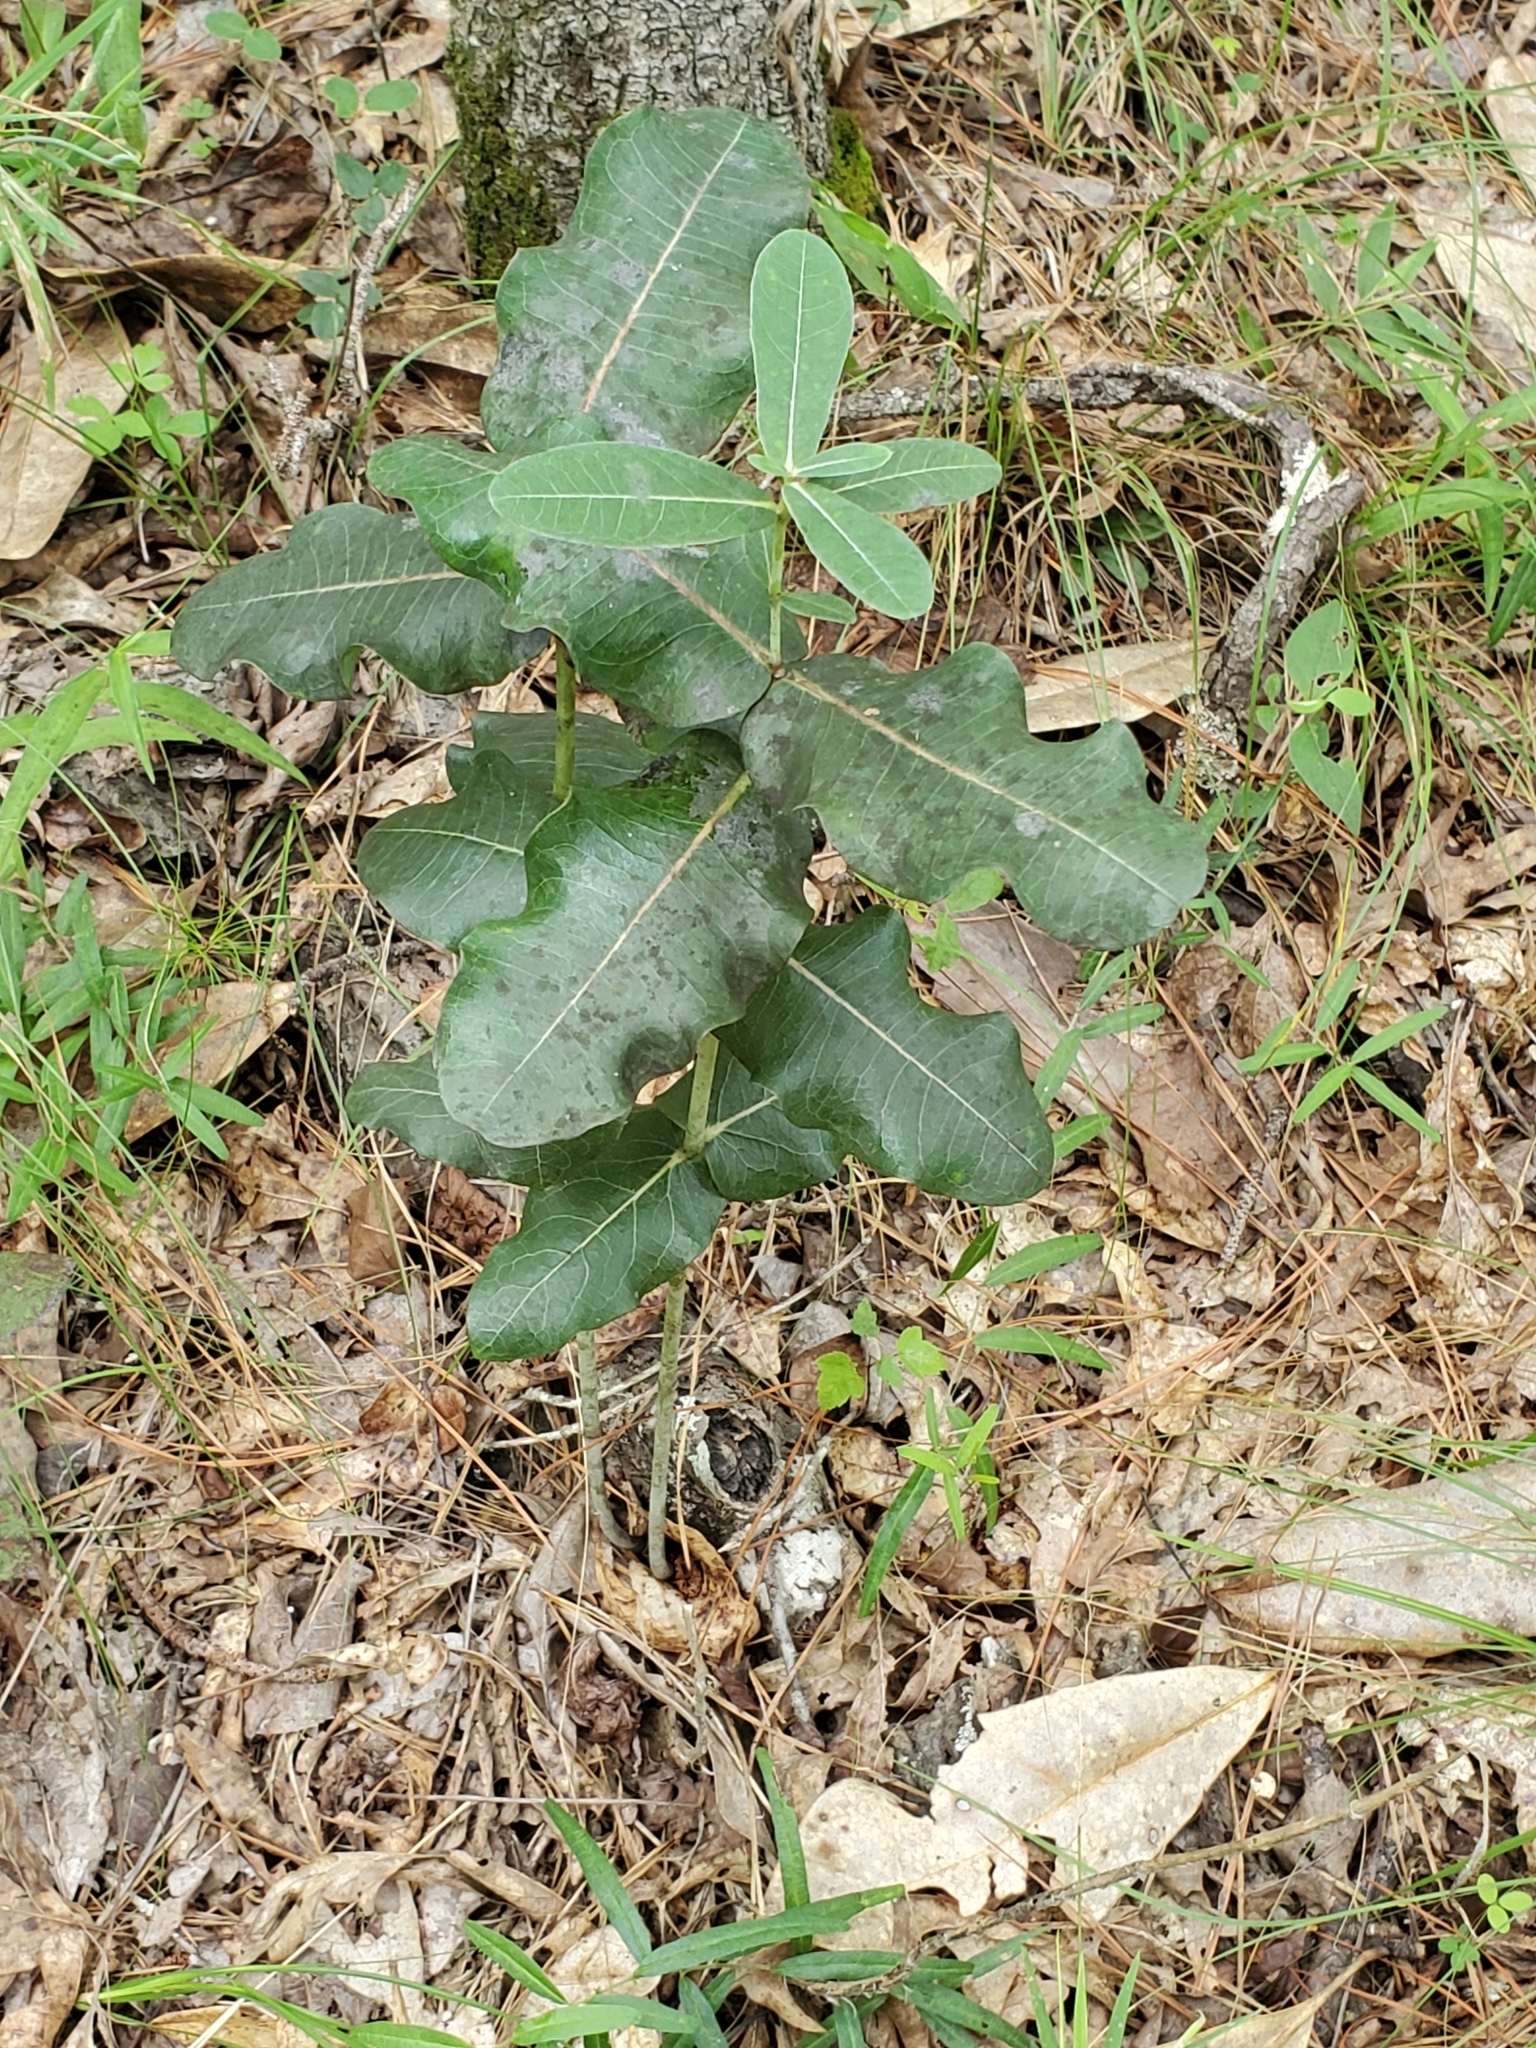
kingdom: Plantae
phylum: Tracheophyta
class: Magnoliopsida
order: Gentianales
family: Apocynaceae
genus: Asclepias
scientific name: Asclepias amplexicaulis
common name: Blunt-leaf milkweed
